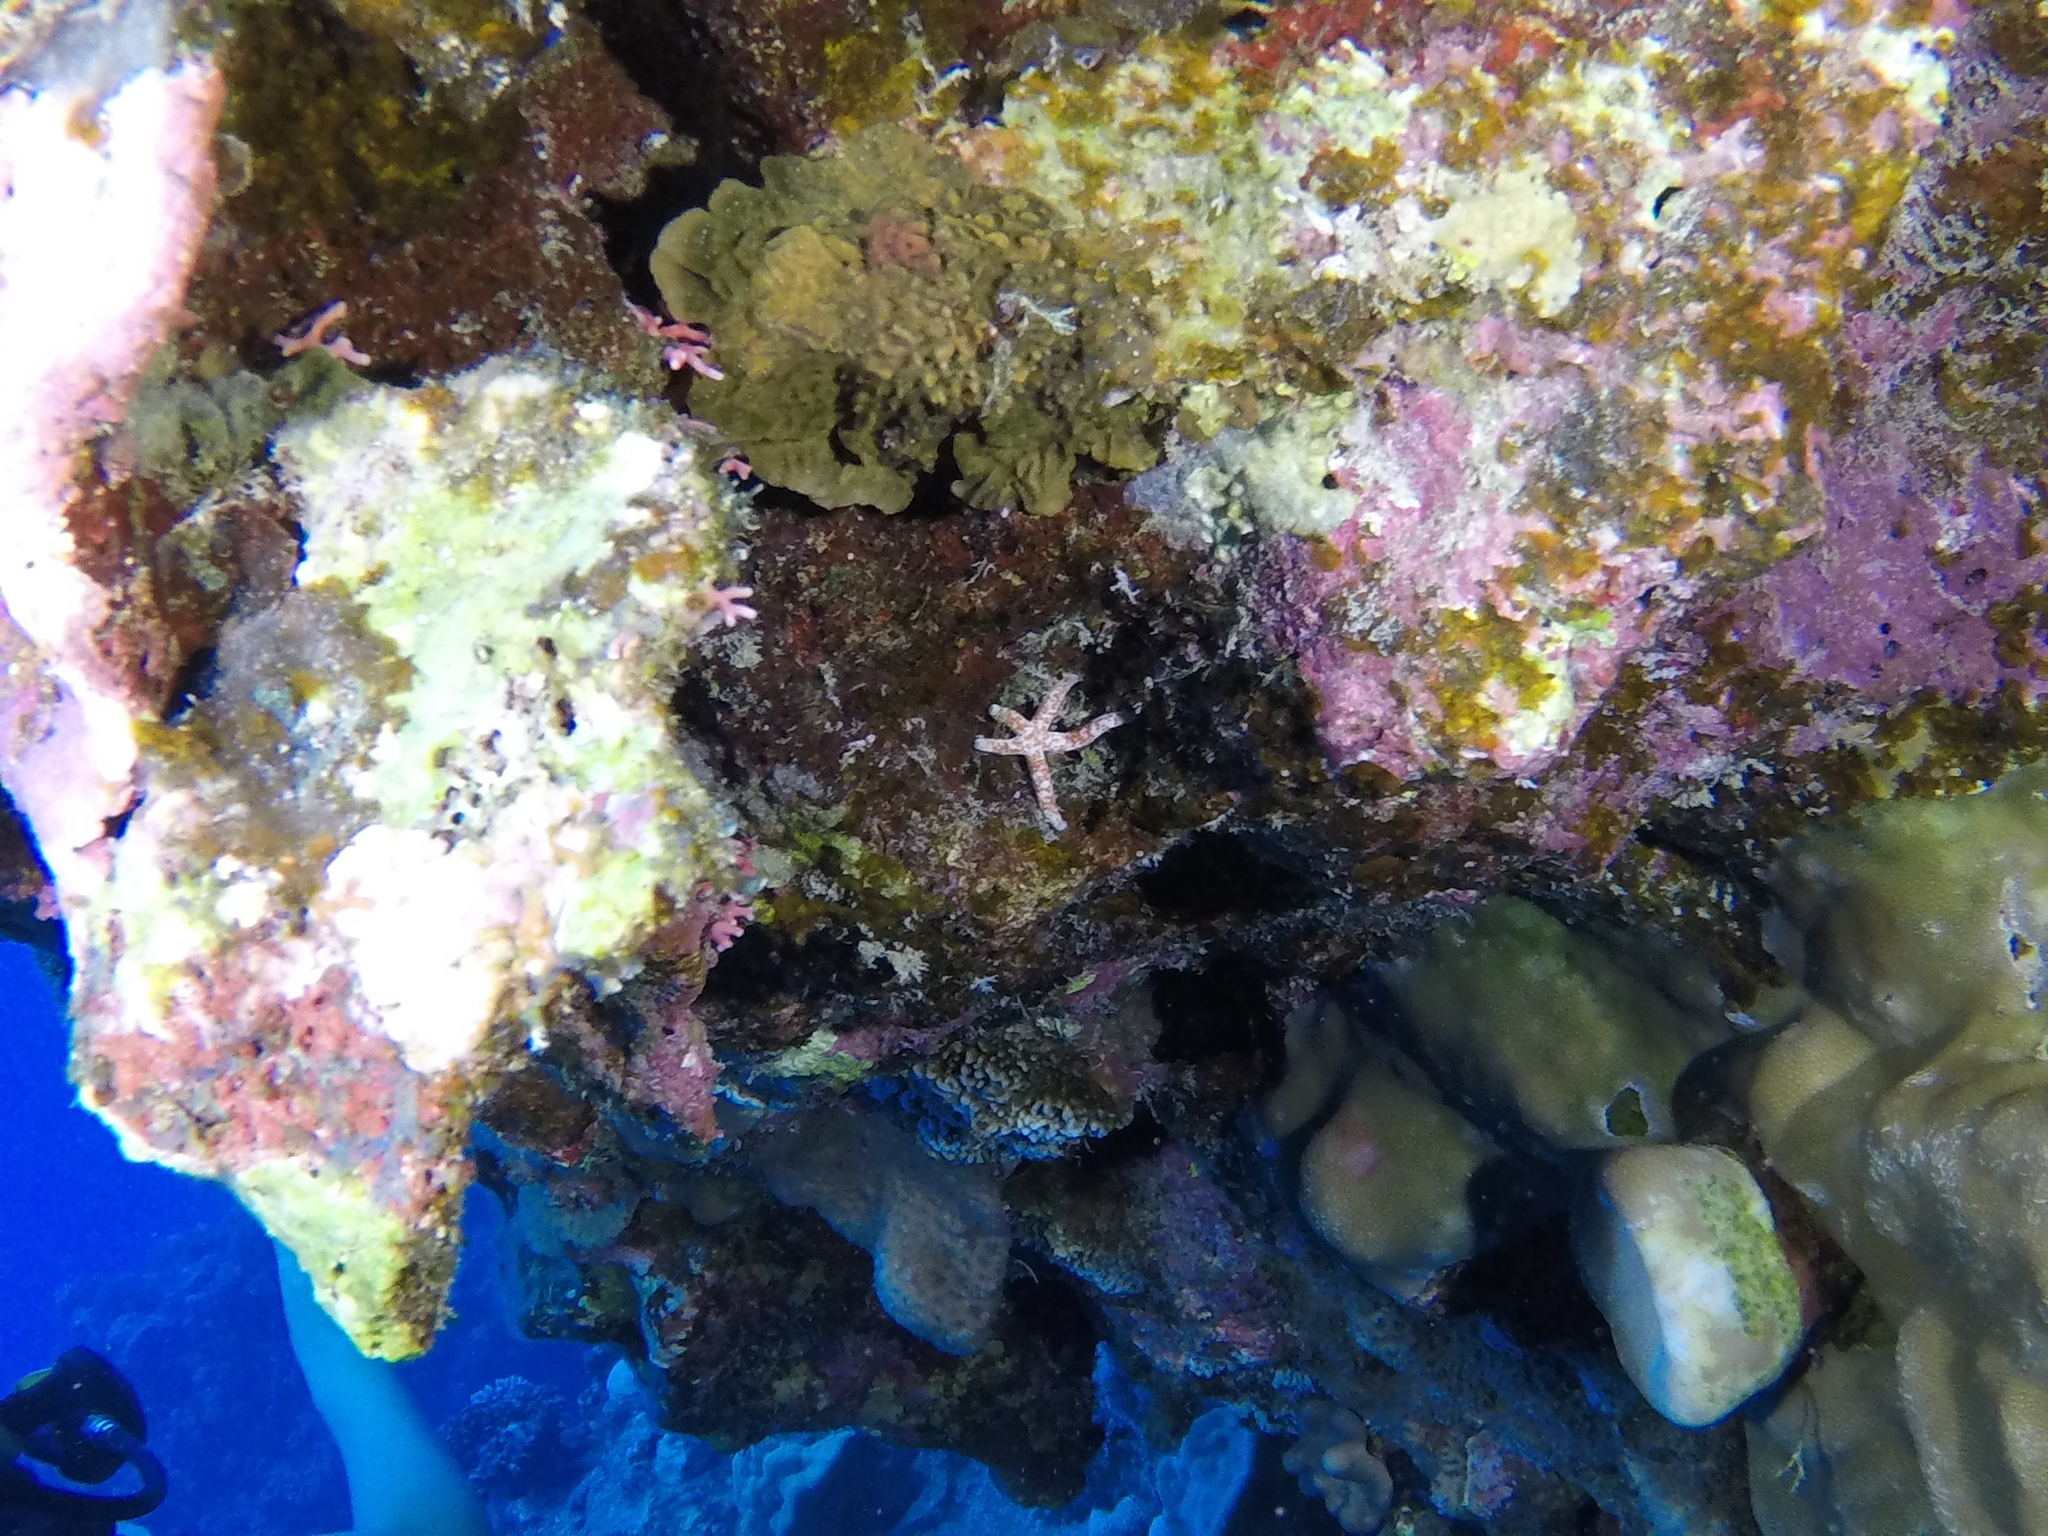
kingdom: Animalia
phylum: Echinodermata
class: Asteroidea
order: Valvatida
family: Ophidiasteridae
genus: Linckia
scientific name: Linckia multifora
